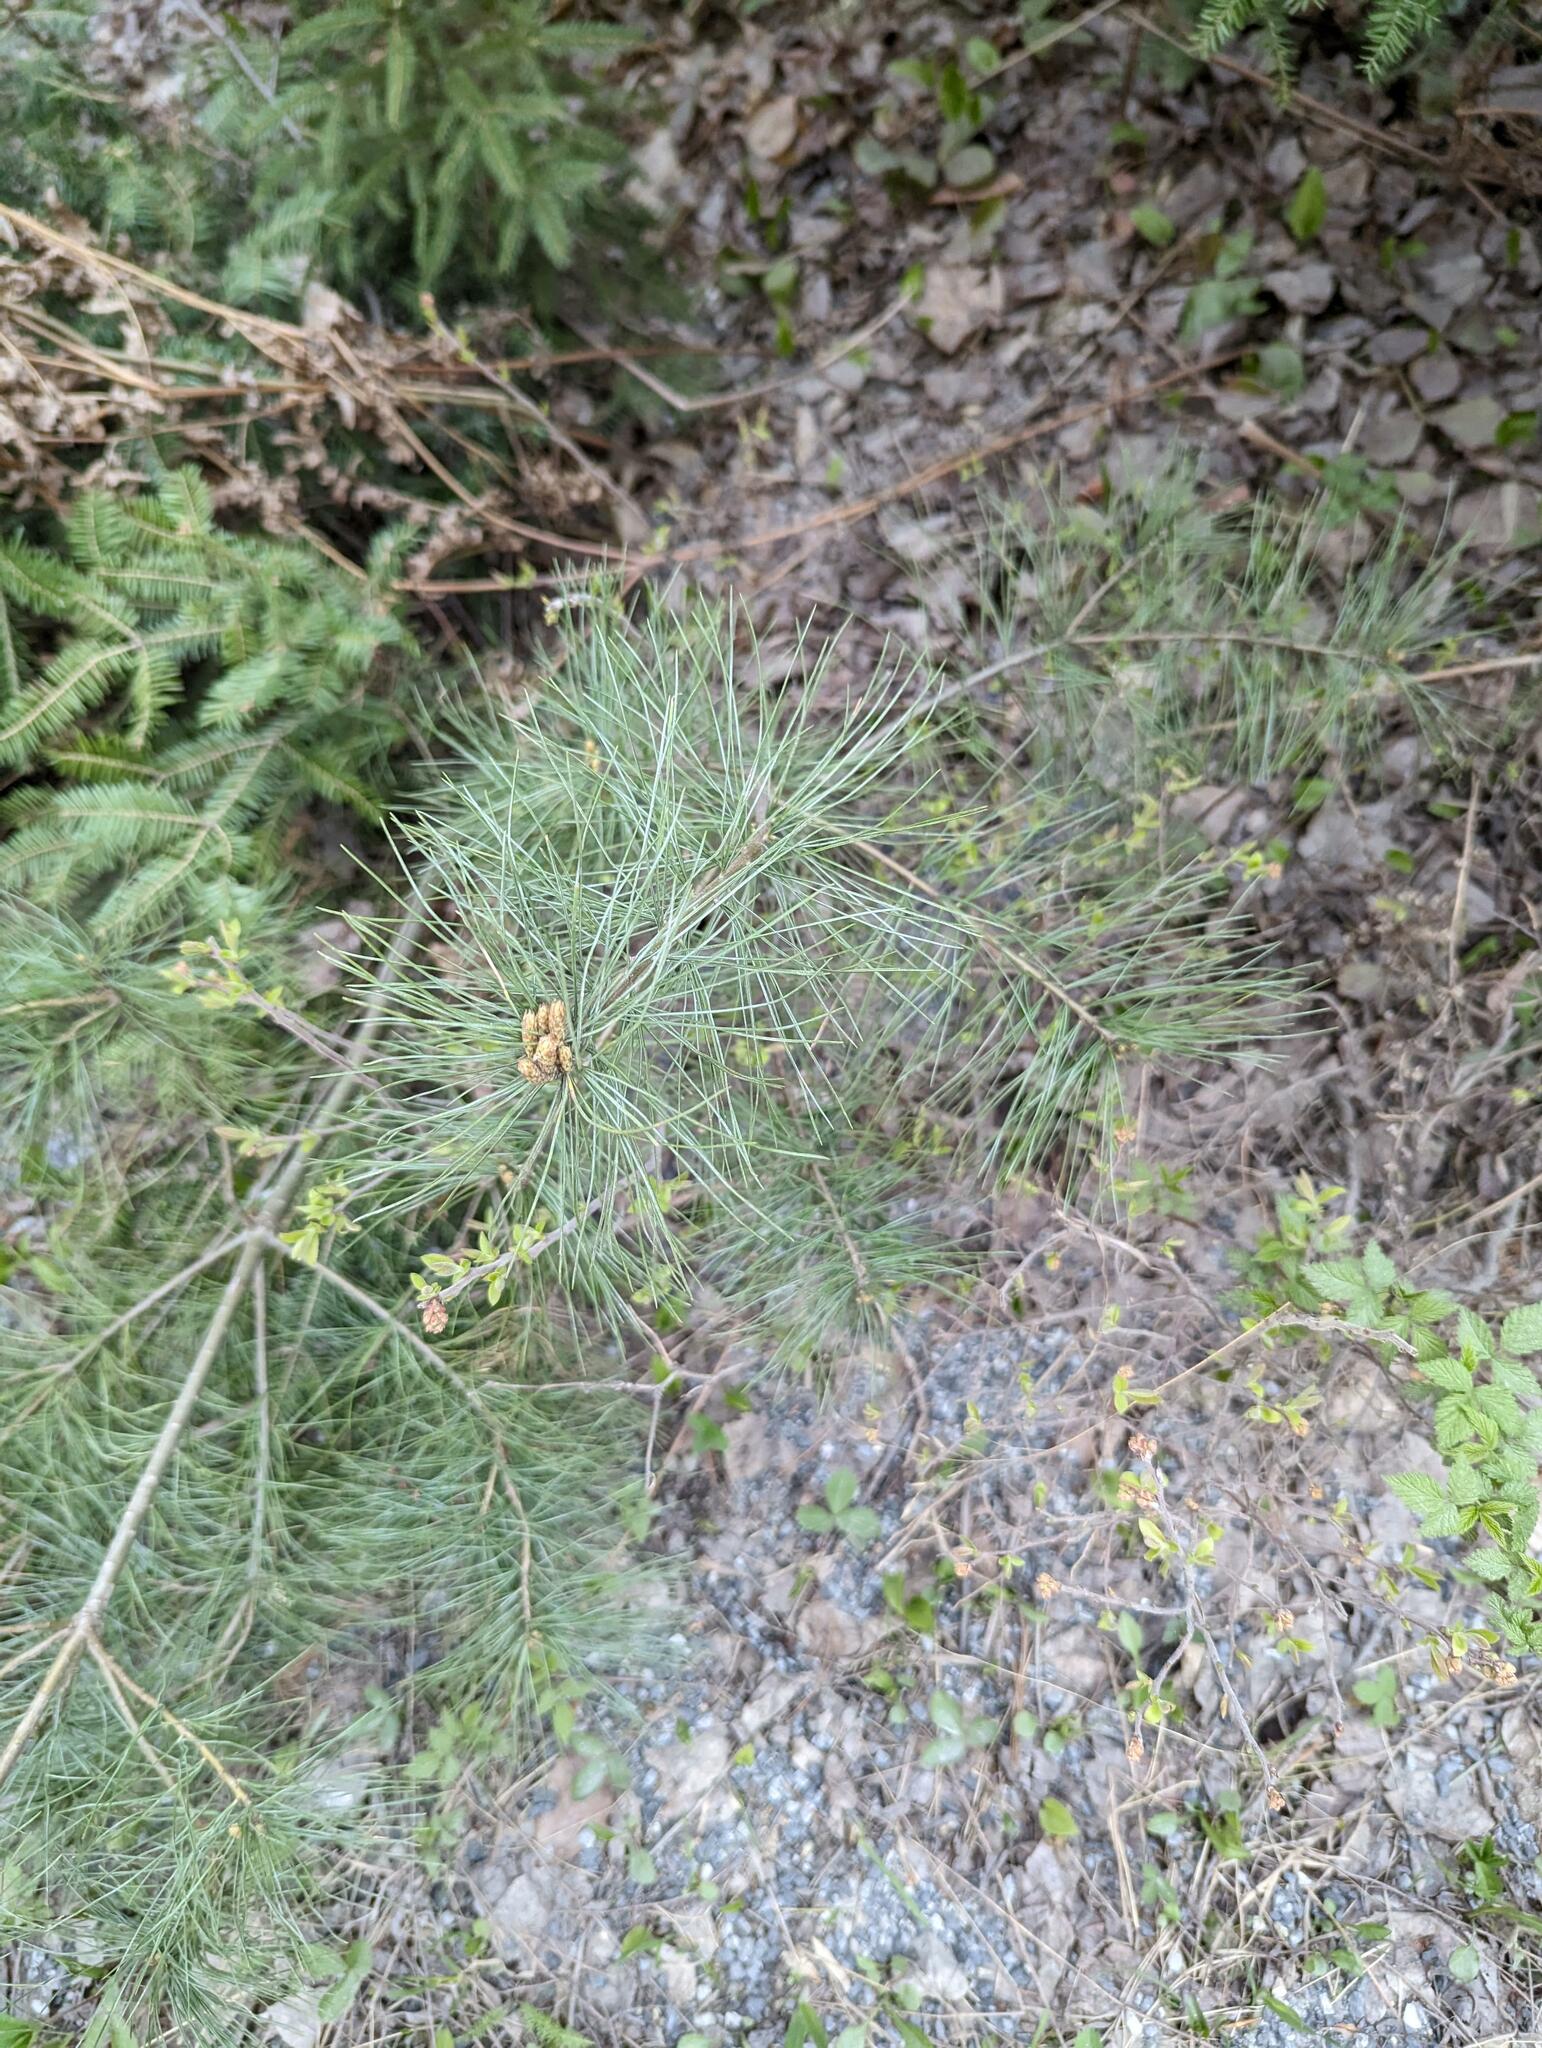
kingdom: Plantae
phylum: Tracheophyta
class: Pinopsida
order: Pinales
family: Pinaceae
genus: Pinus
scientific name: Pinus strobus
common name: Weymouth pine
